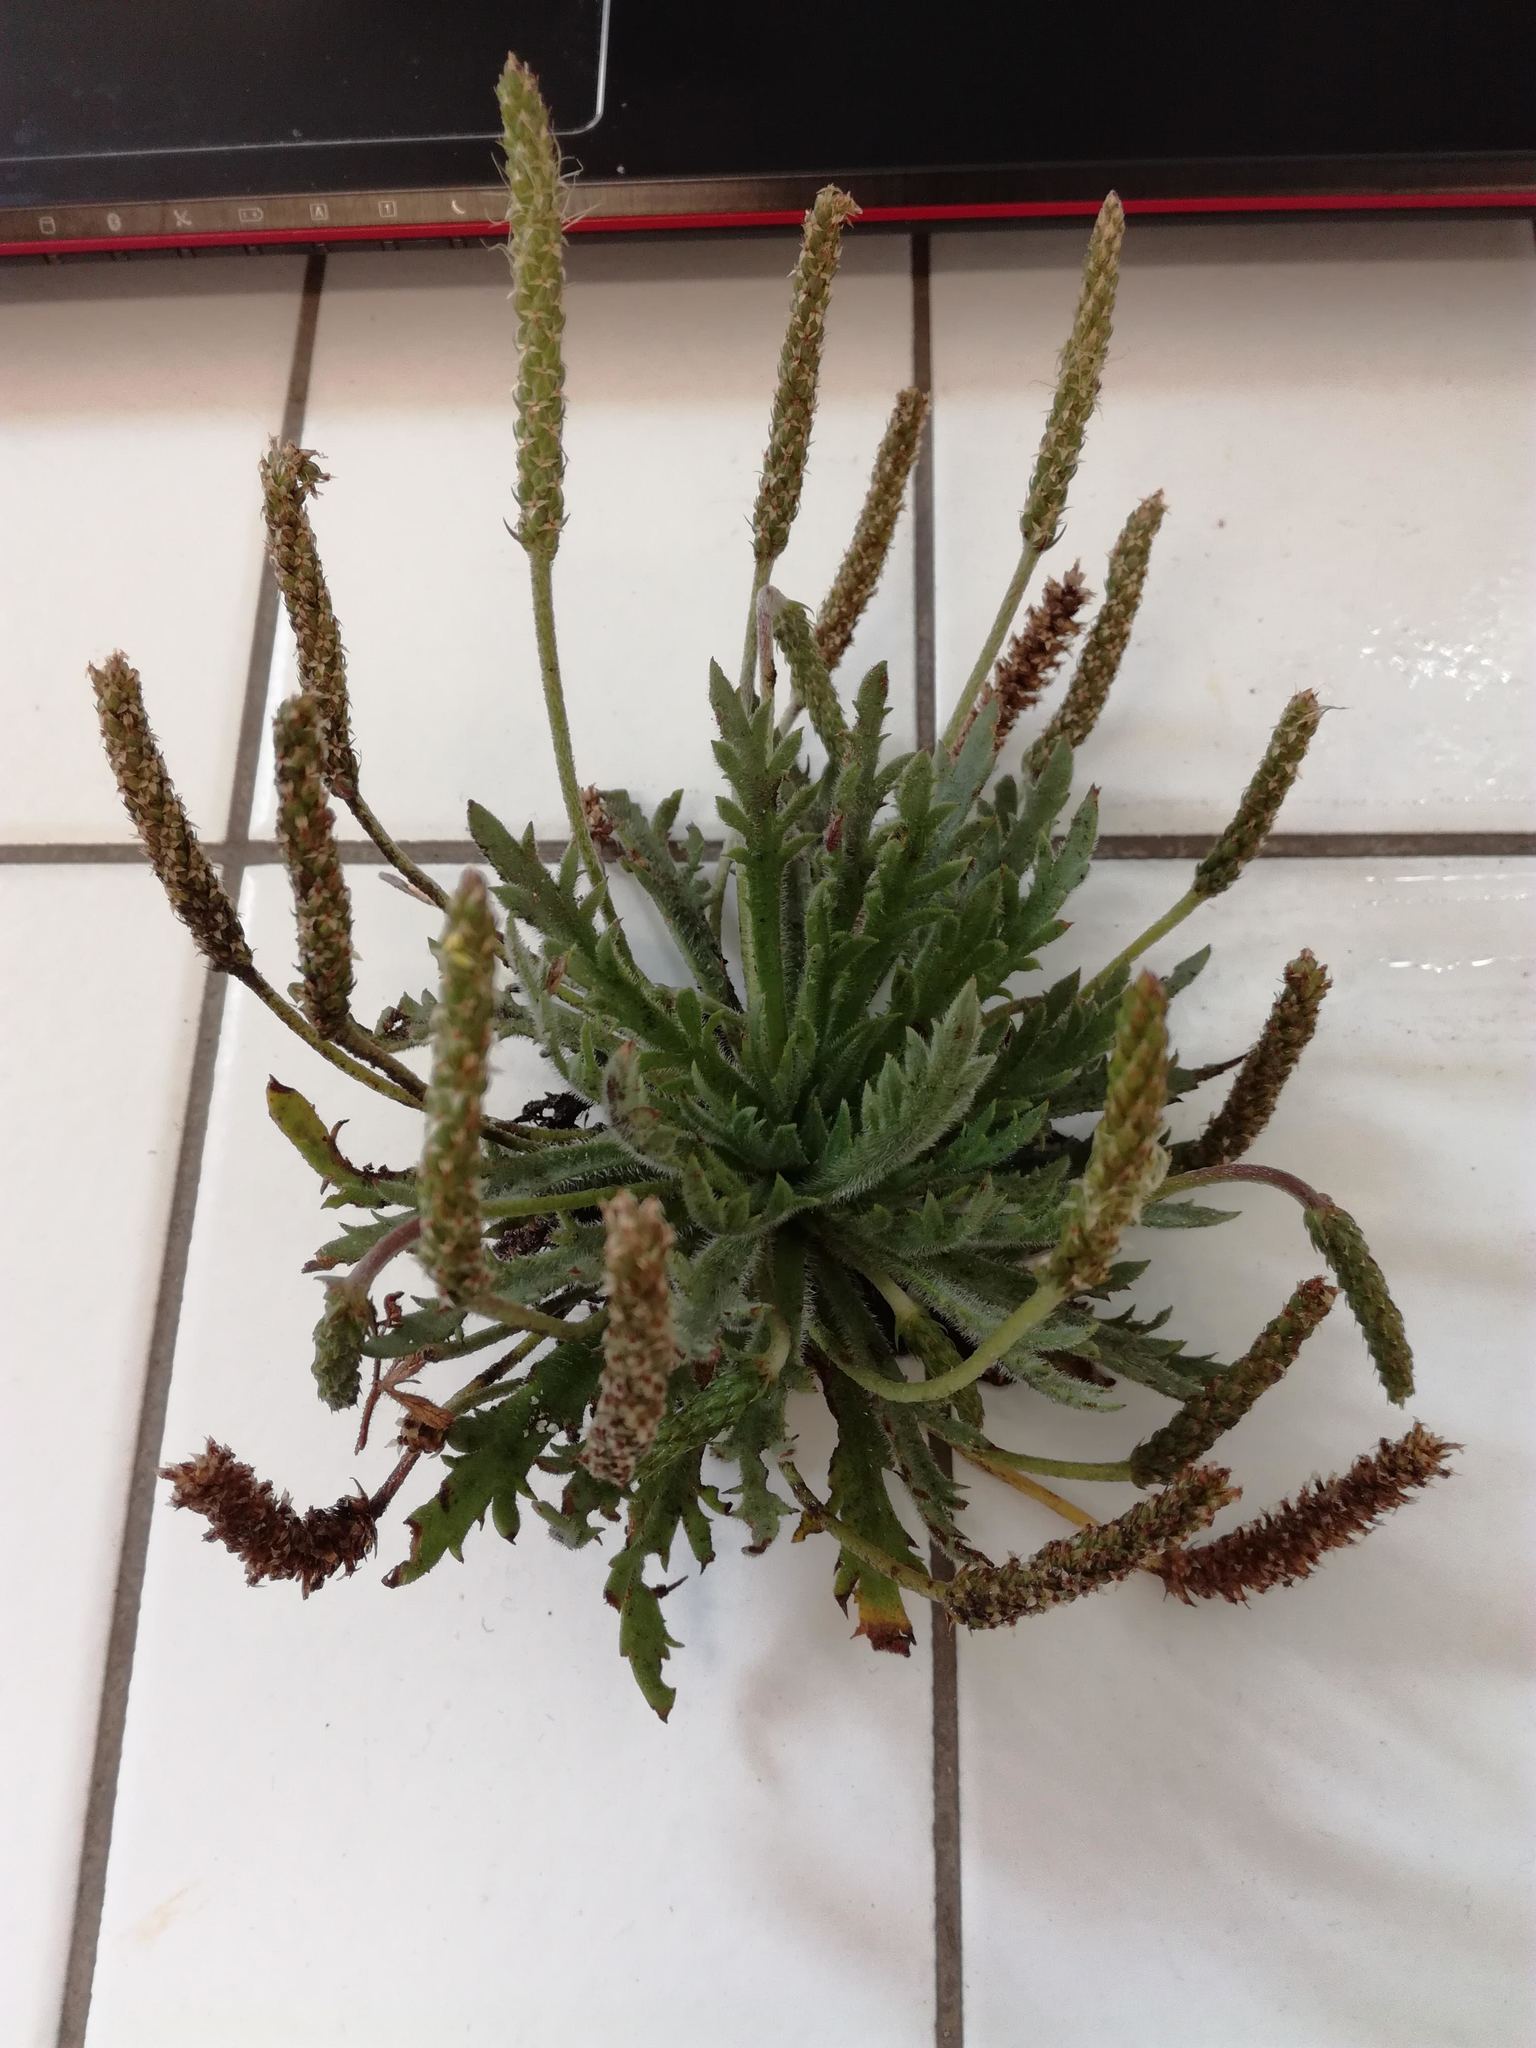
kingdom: Plantae
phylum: Tracheophyta
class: Magnoliopsida
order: Lamiales
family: Plantaginaceae
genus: Plantago
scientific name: Plantago coronopus
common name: Buck's-horn plantain
